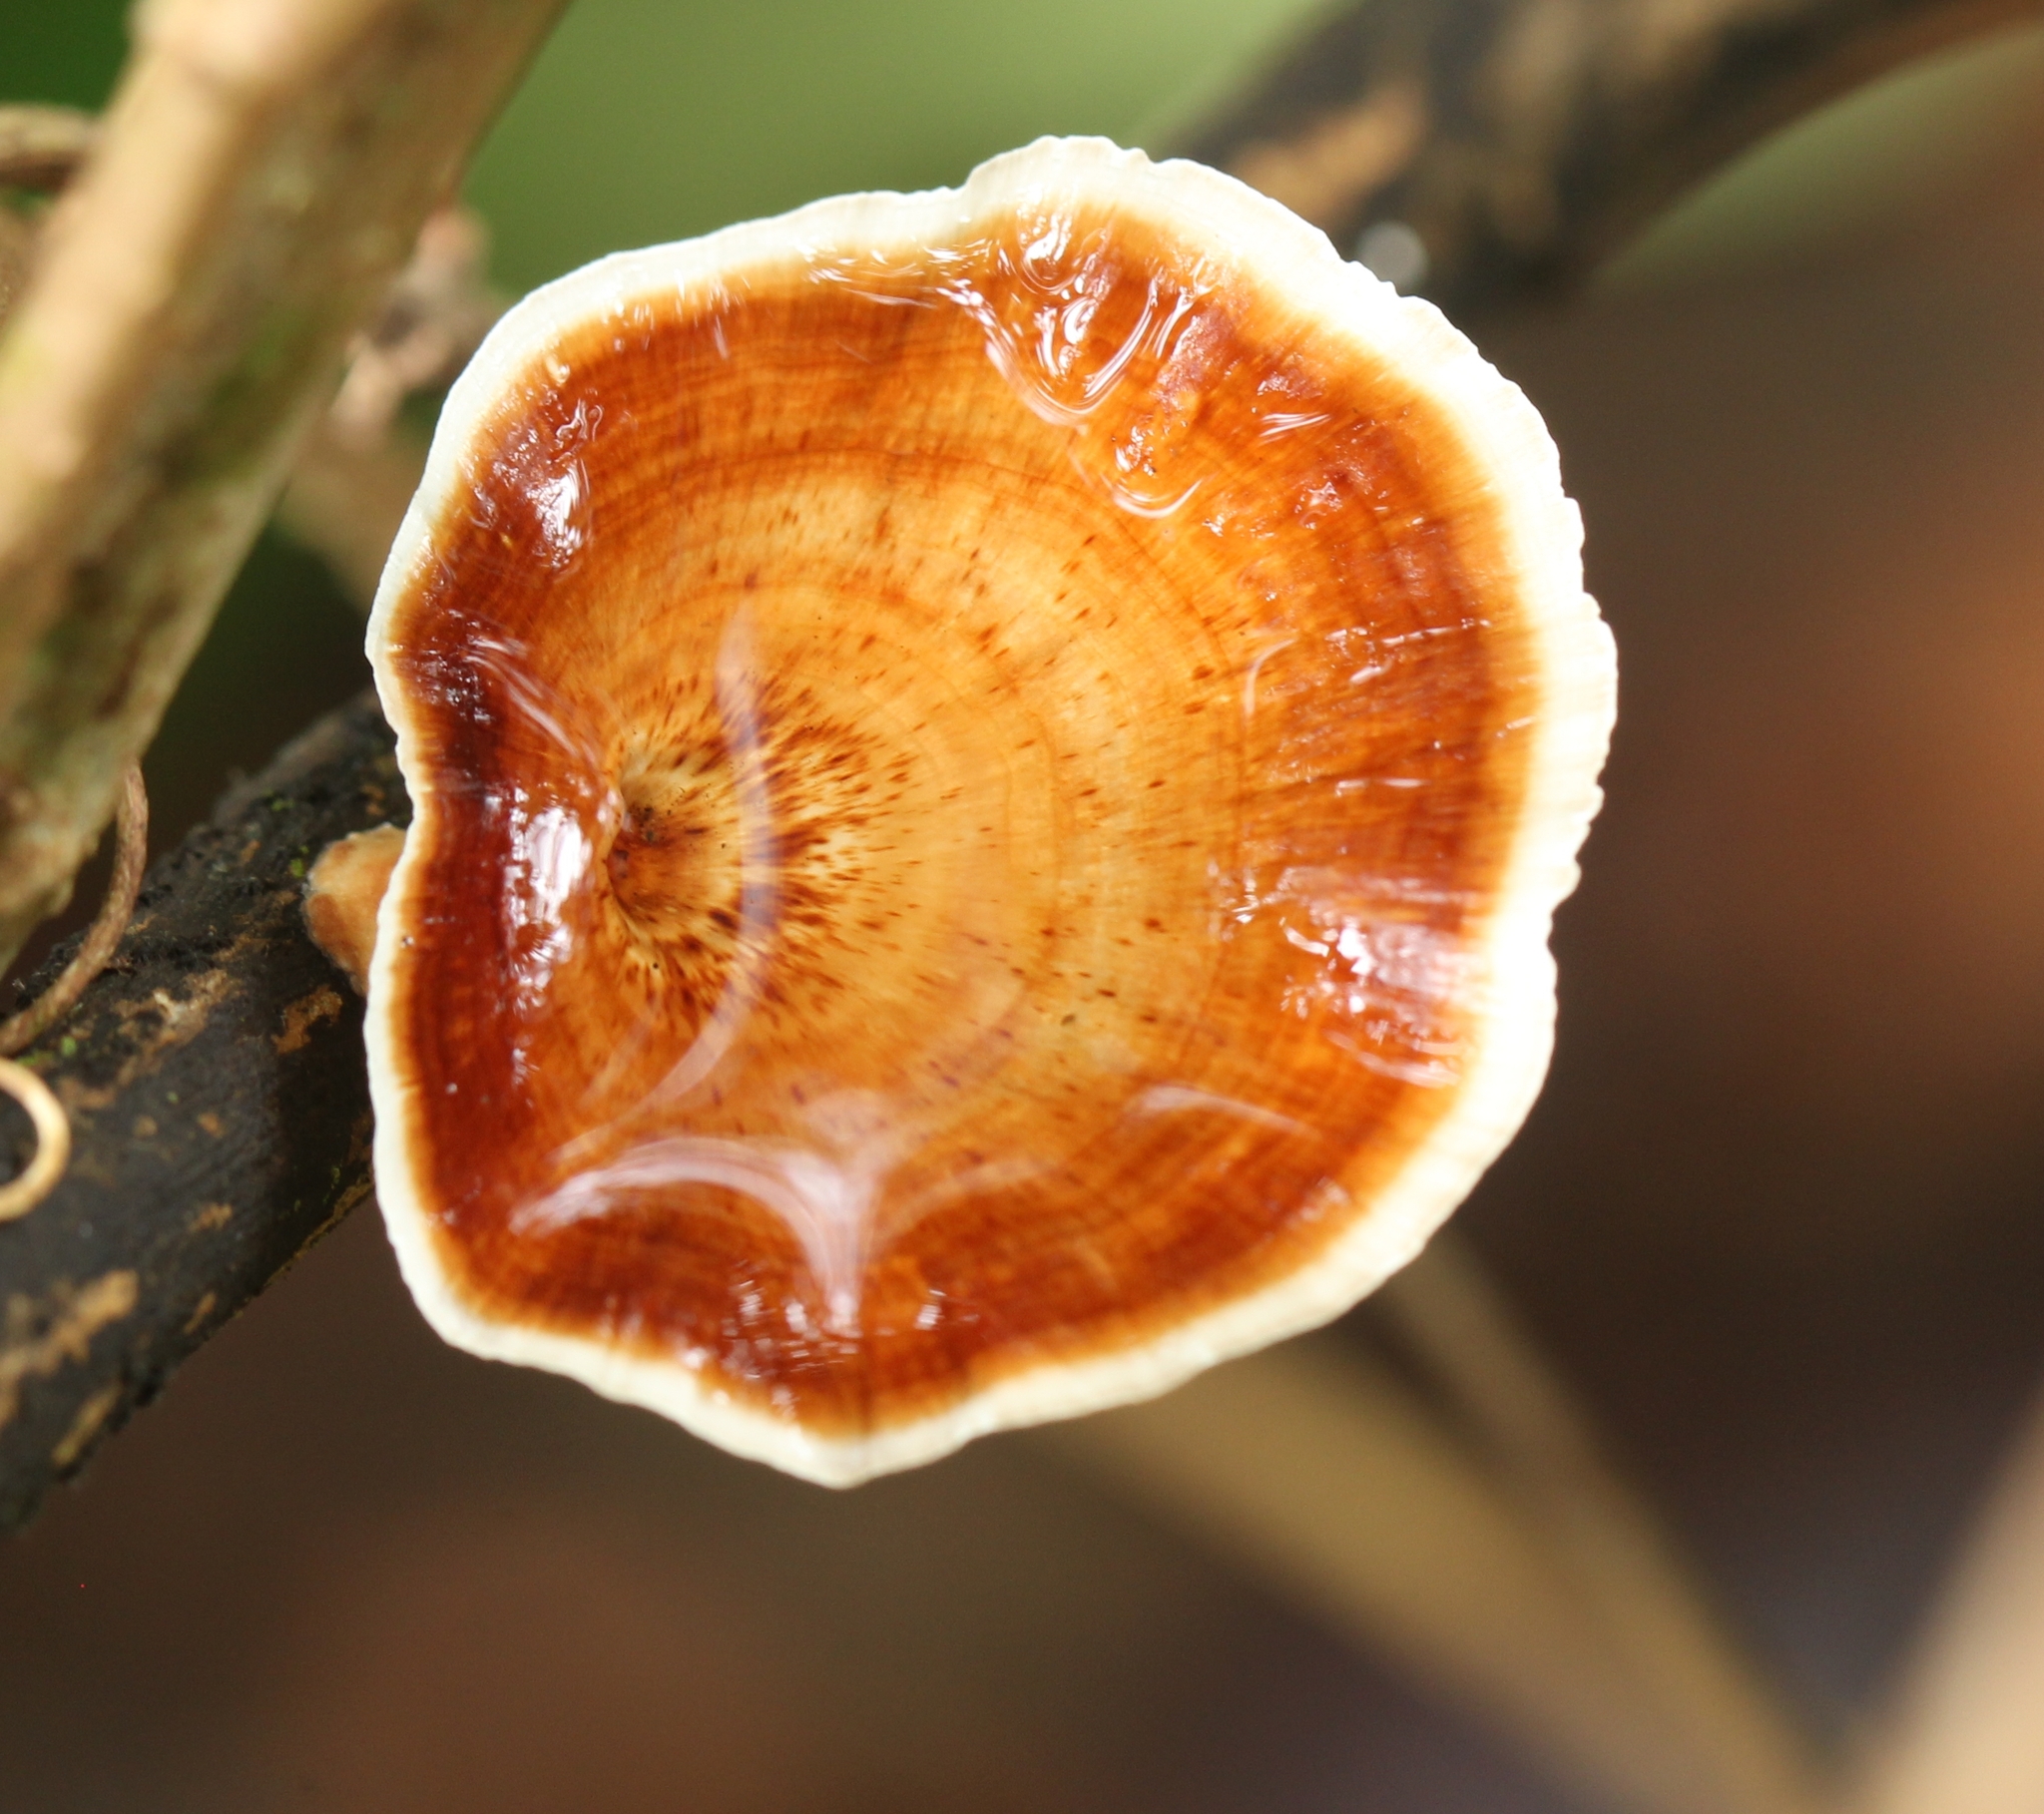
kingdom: Fungi
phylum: Basidiomycota
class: Agaricomycetes
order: Polyporales
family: Polyporaceae
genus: Microporus
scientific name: Microporus xanthopus
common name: Yellow-stemmed micropore
